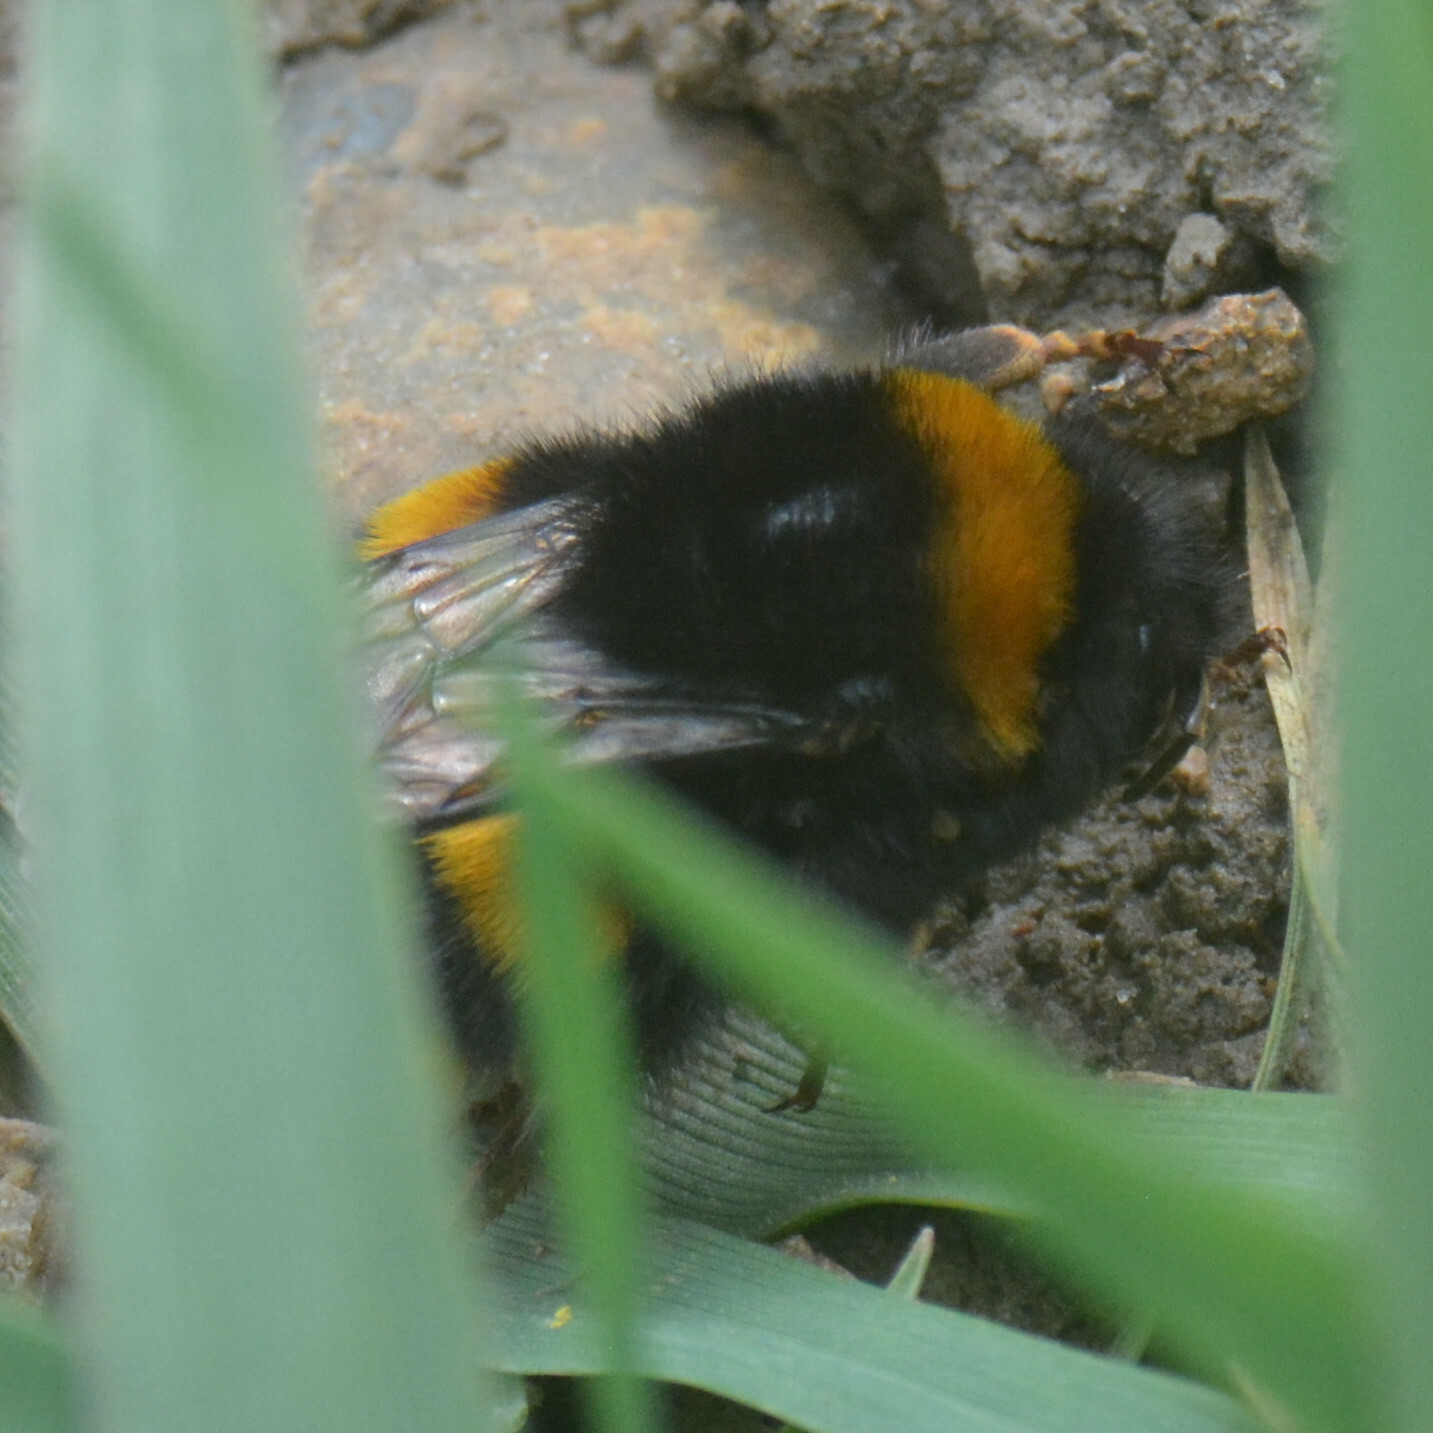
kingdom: Animalia
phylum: Arthropoda
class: Insecta
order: Hymenoptera
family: Apidae
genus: Bombus
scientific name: Bombus terrestris
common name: Buff-tailed bumblebee
